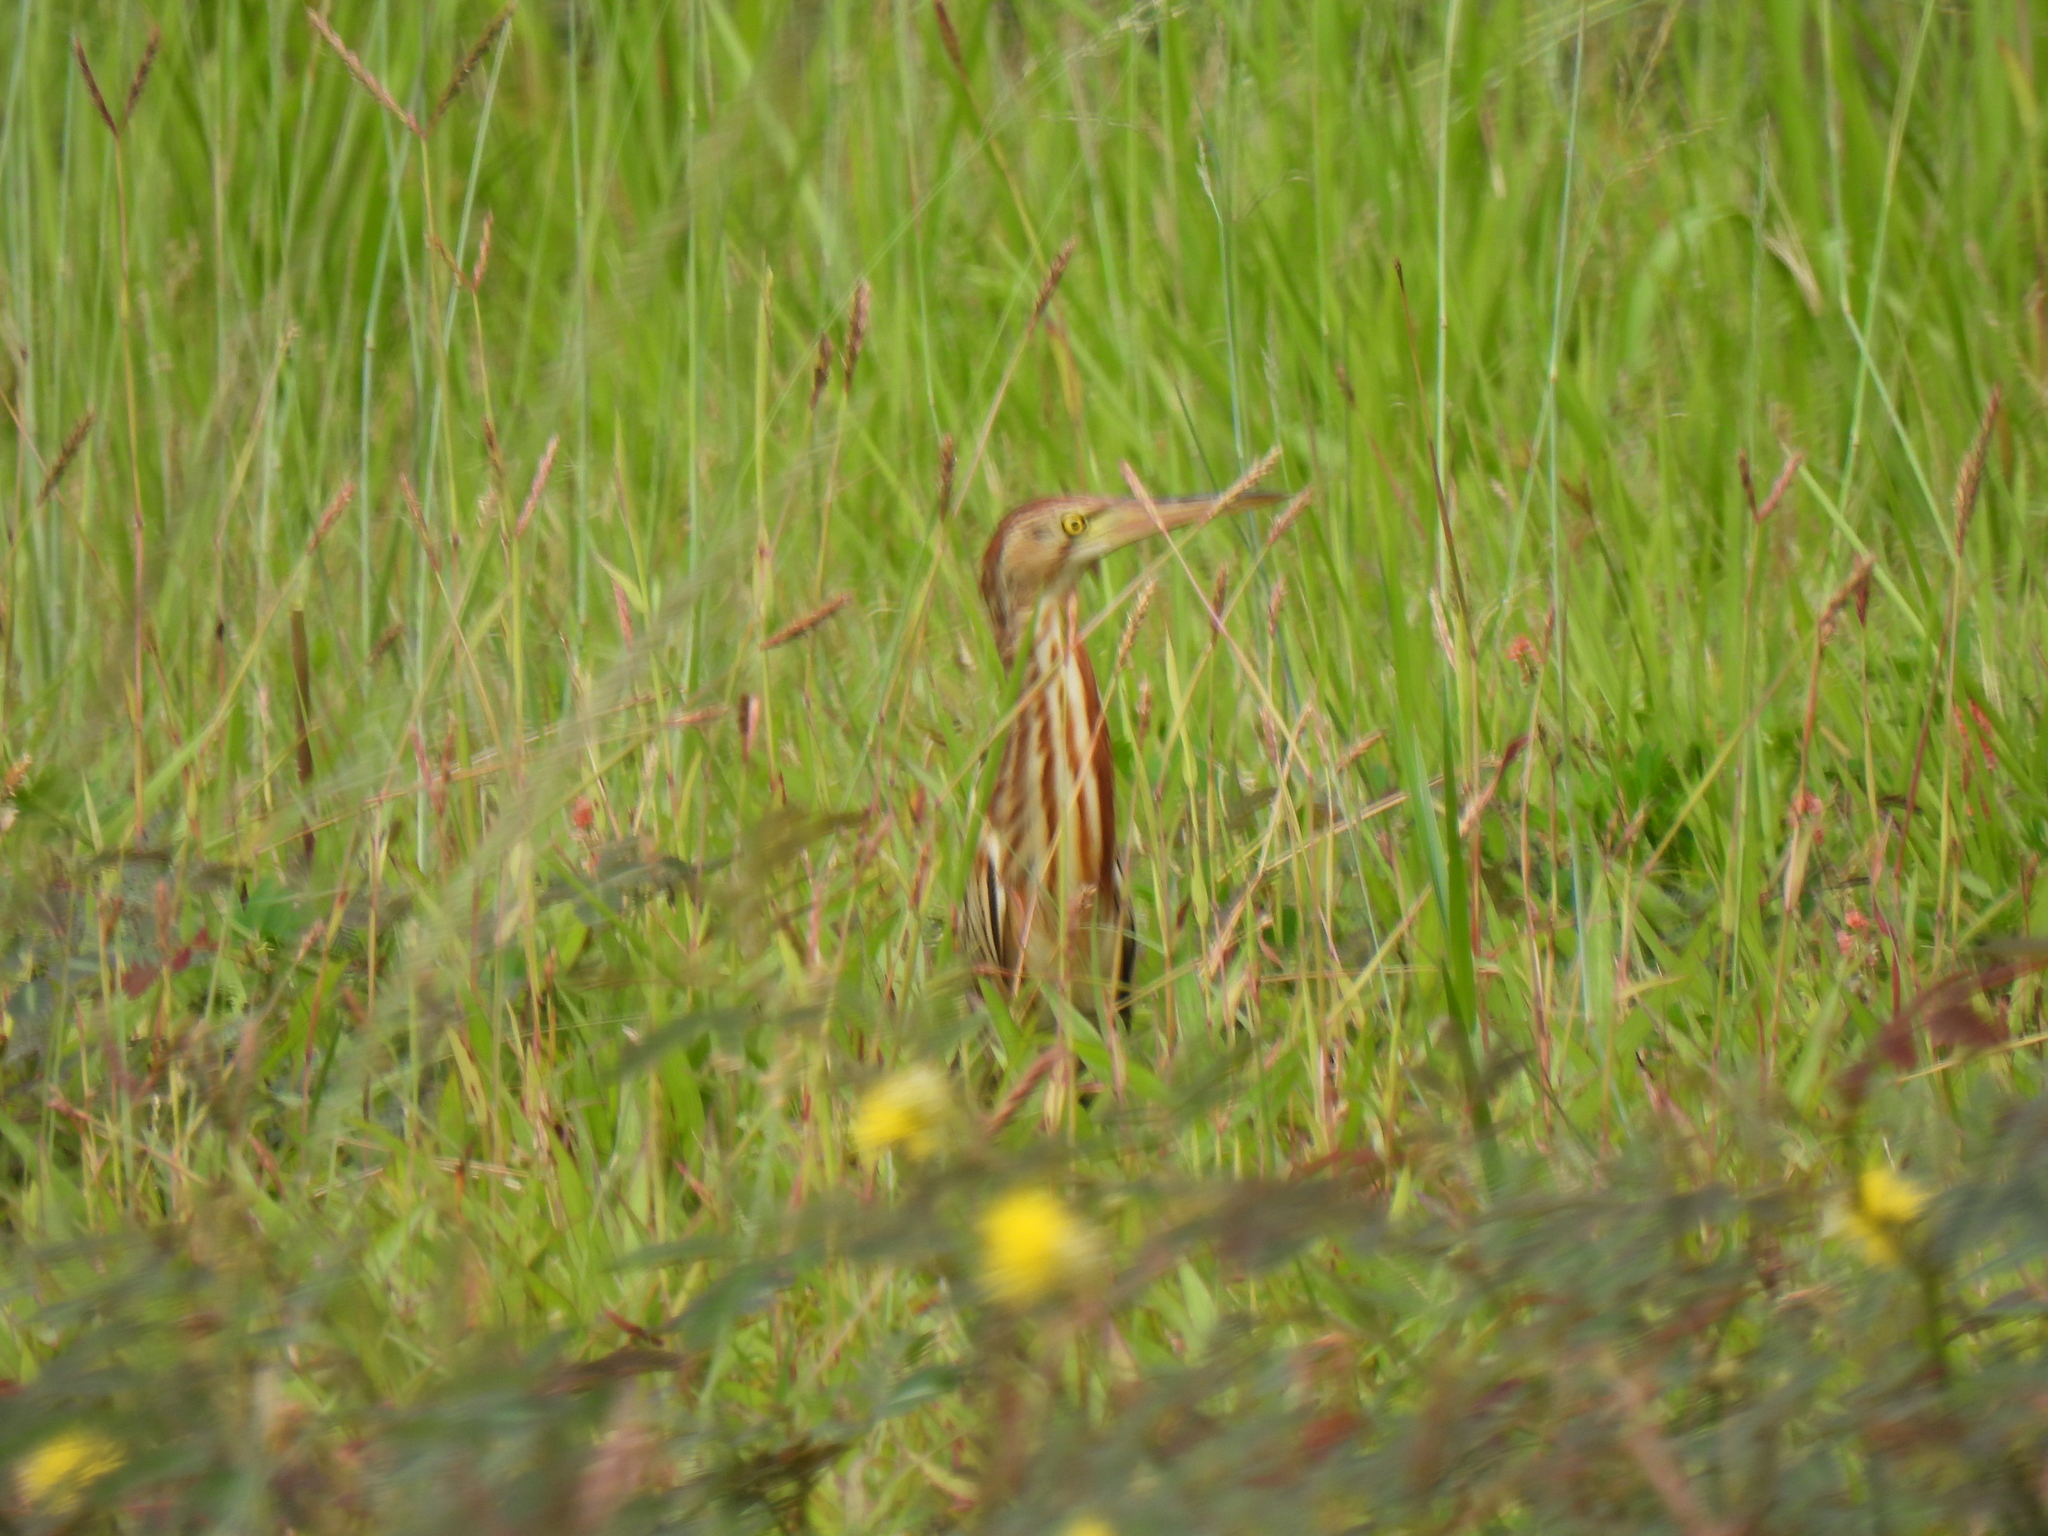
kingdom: Animalia
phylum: Chordata
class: Aves
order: Pelecaniformes
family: Ardeidae
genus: Ixobrychus
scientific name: Ixobrychus sinensis
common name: Yellow bittern
